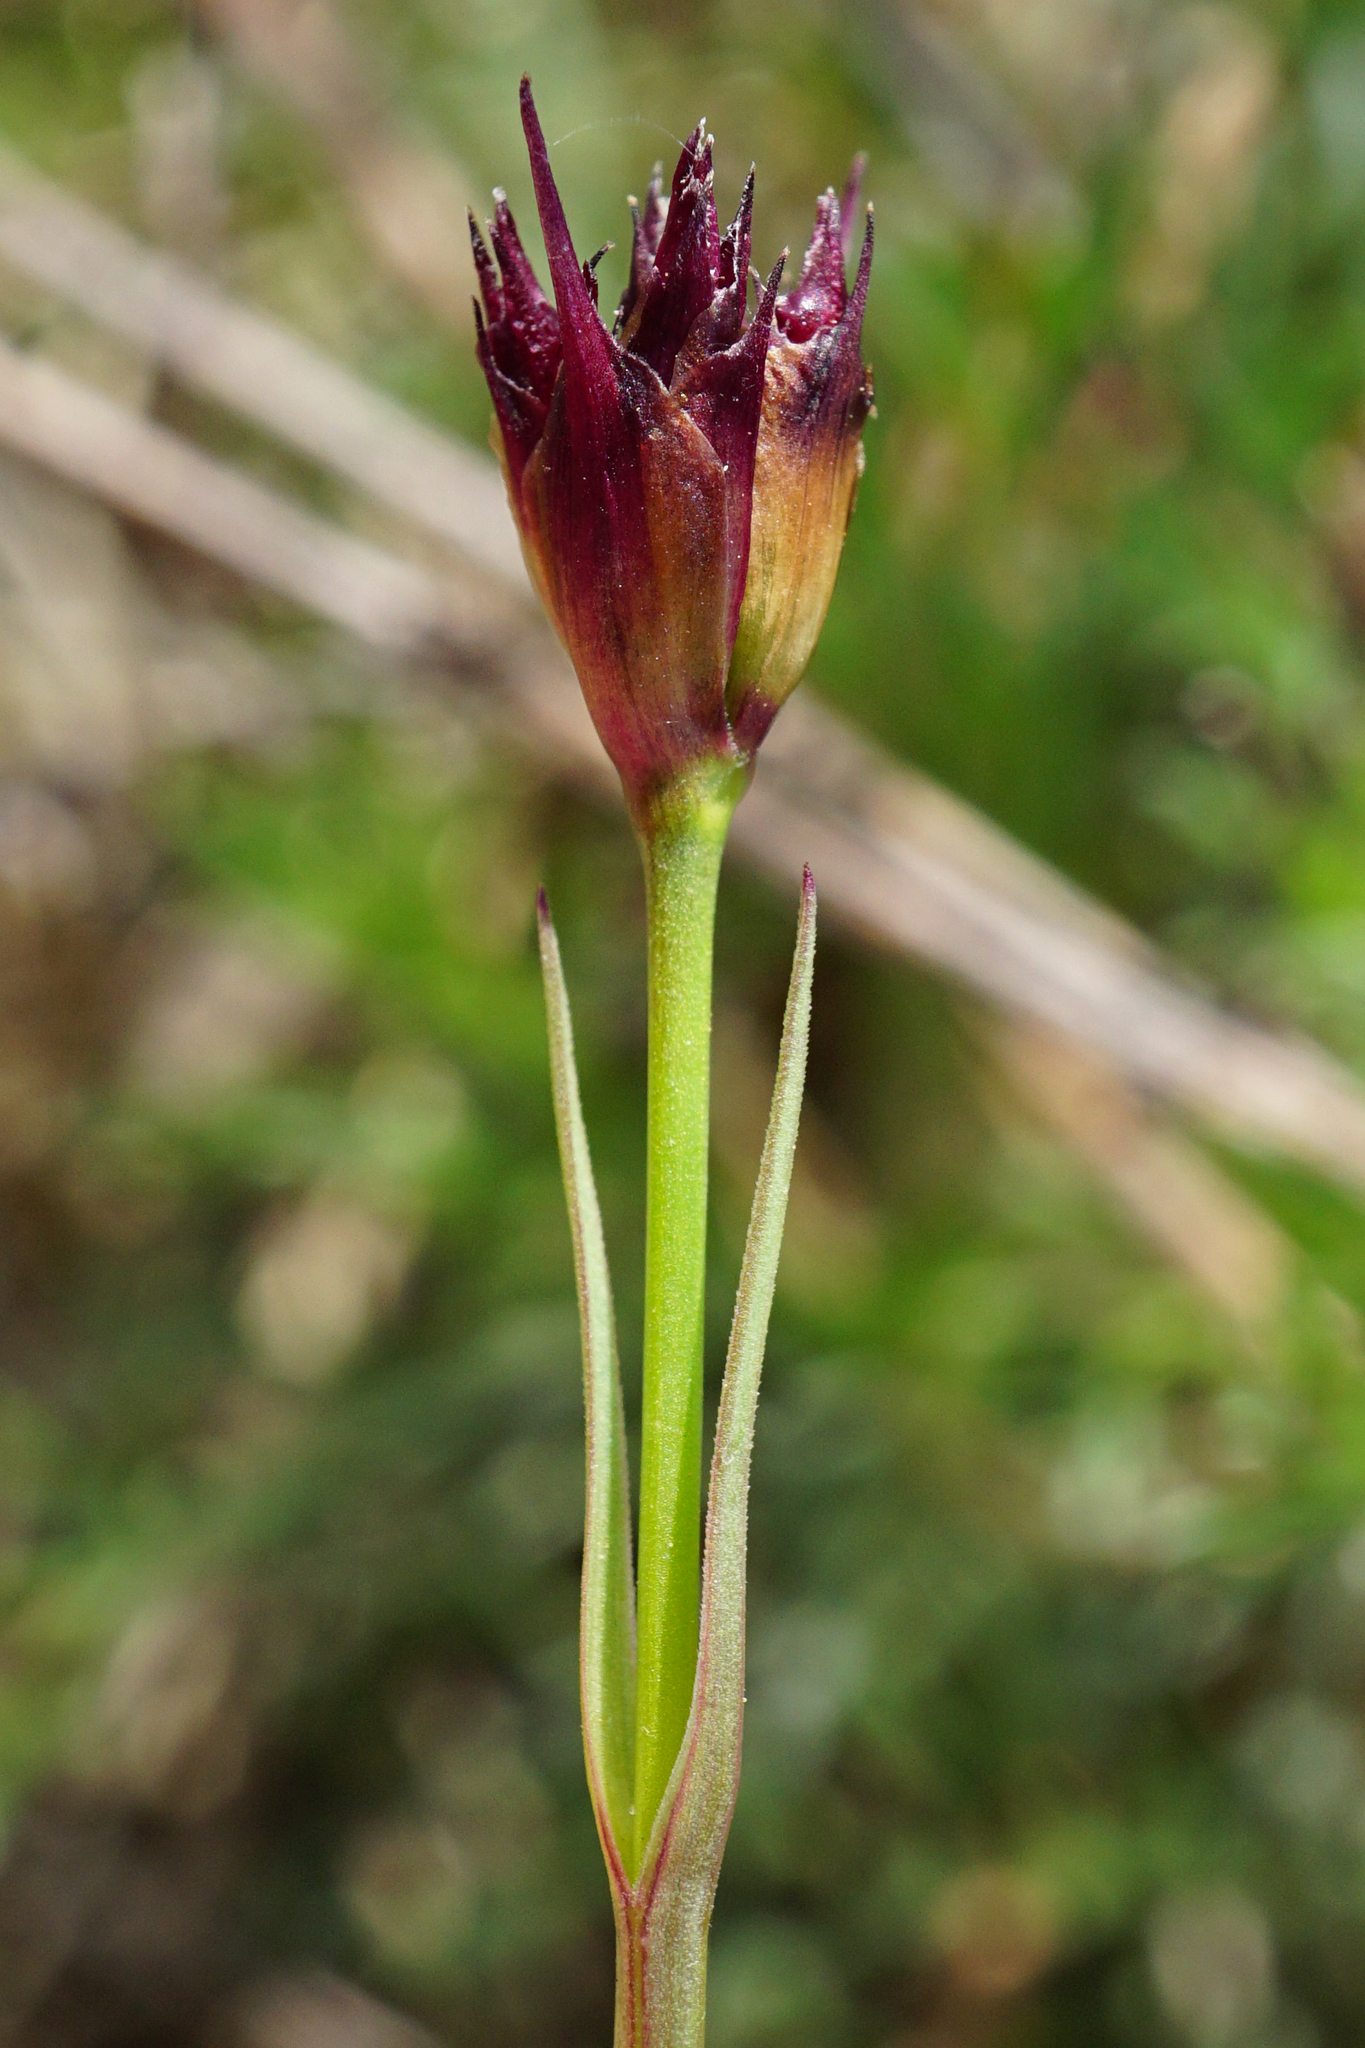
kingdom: Plantae
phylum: Tracheophyta
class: Magnoliopsida
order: Caryophyllales
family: Caryophyllaceae
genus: Dianthus
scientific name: Dianthus pontederae
